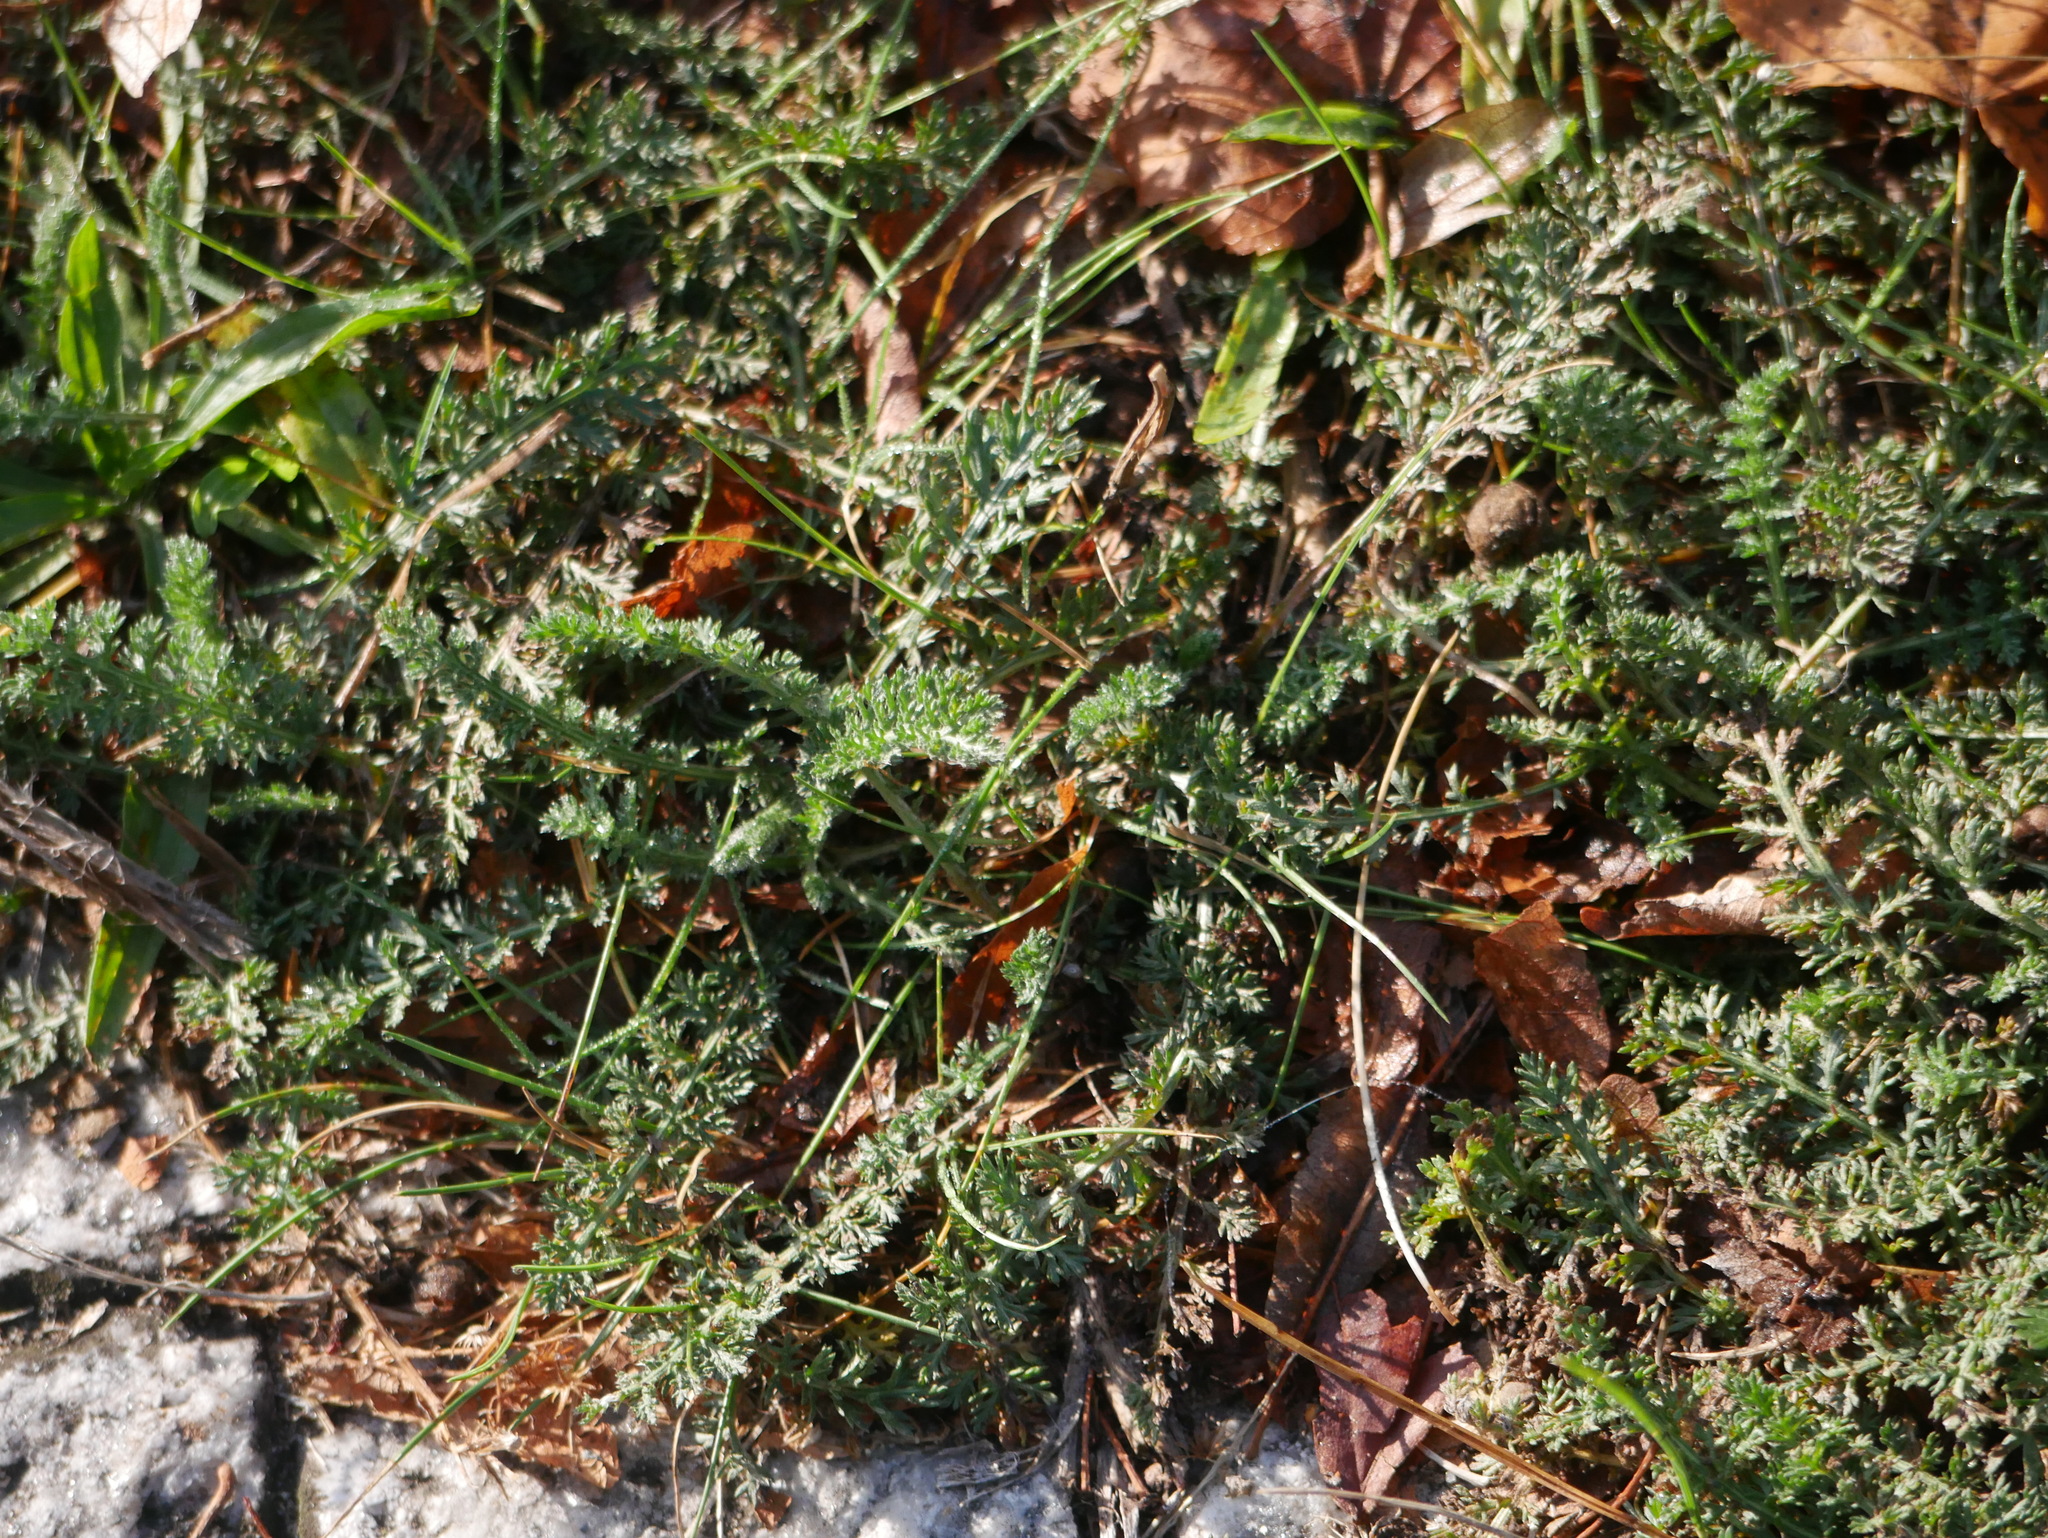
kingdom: Plantae
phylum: Tracheophyta
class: Magnoliopsida
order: Asterales
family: Asteraceae
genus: Achillea
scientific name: Achillea millefolium
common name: Yarrow
